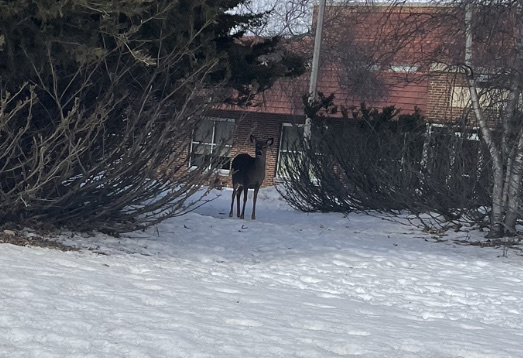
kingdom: Animalia
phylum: Chordata
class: Mammalia
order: Artiodactyla
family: Cervidae
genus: Odocoileus
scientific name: Odocoileus virginianus
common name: White-tailed deer
